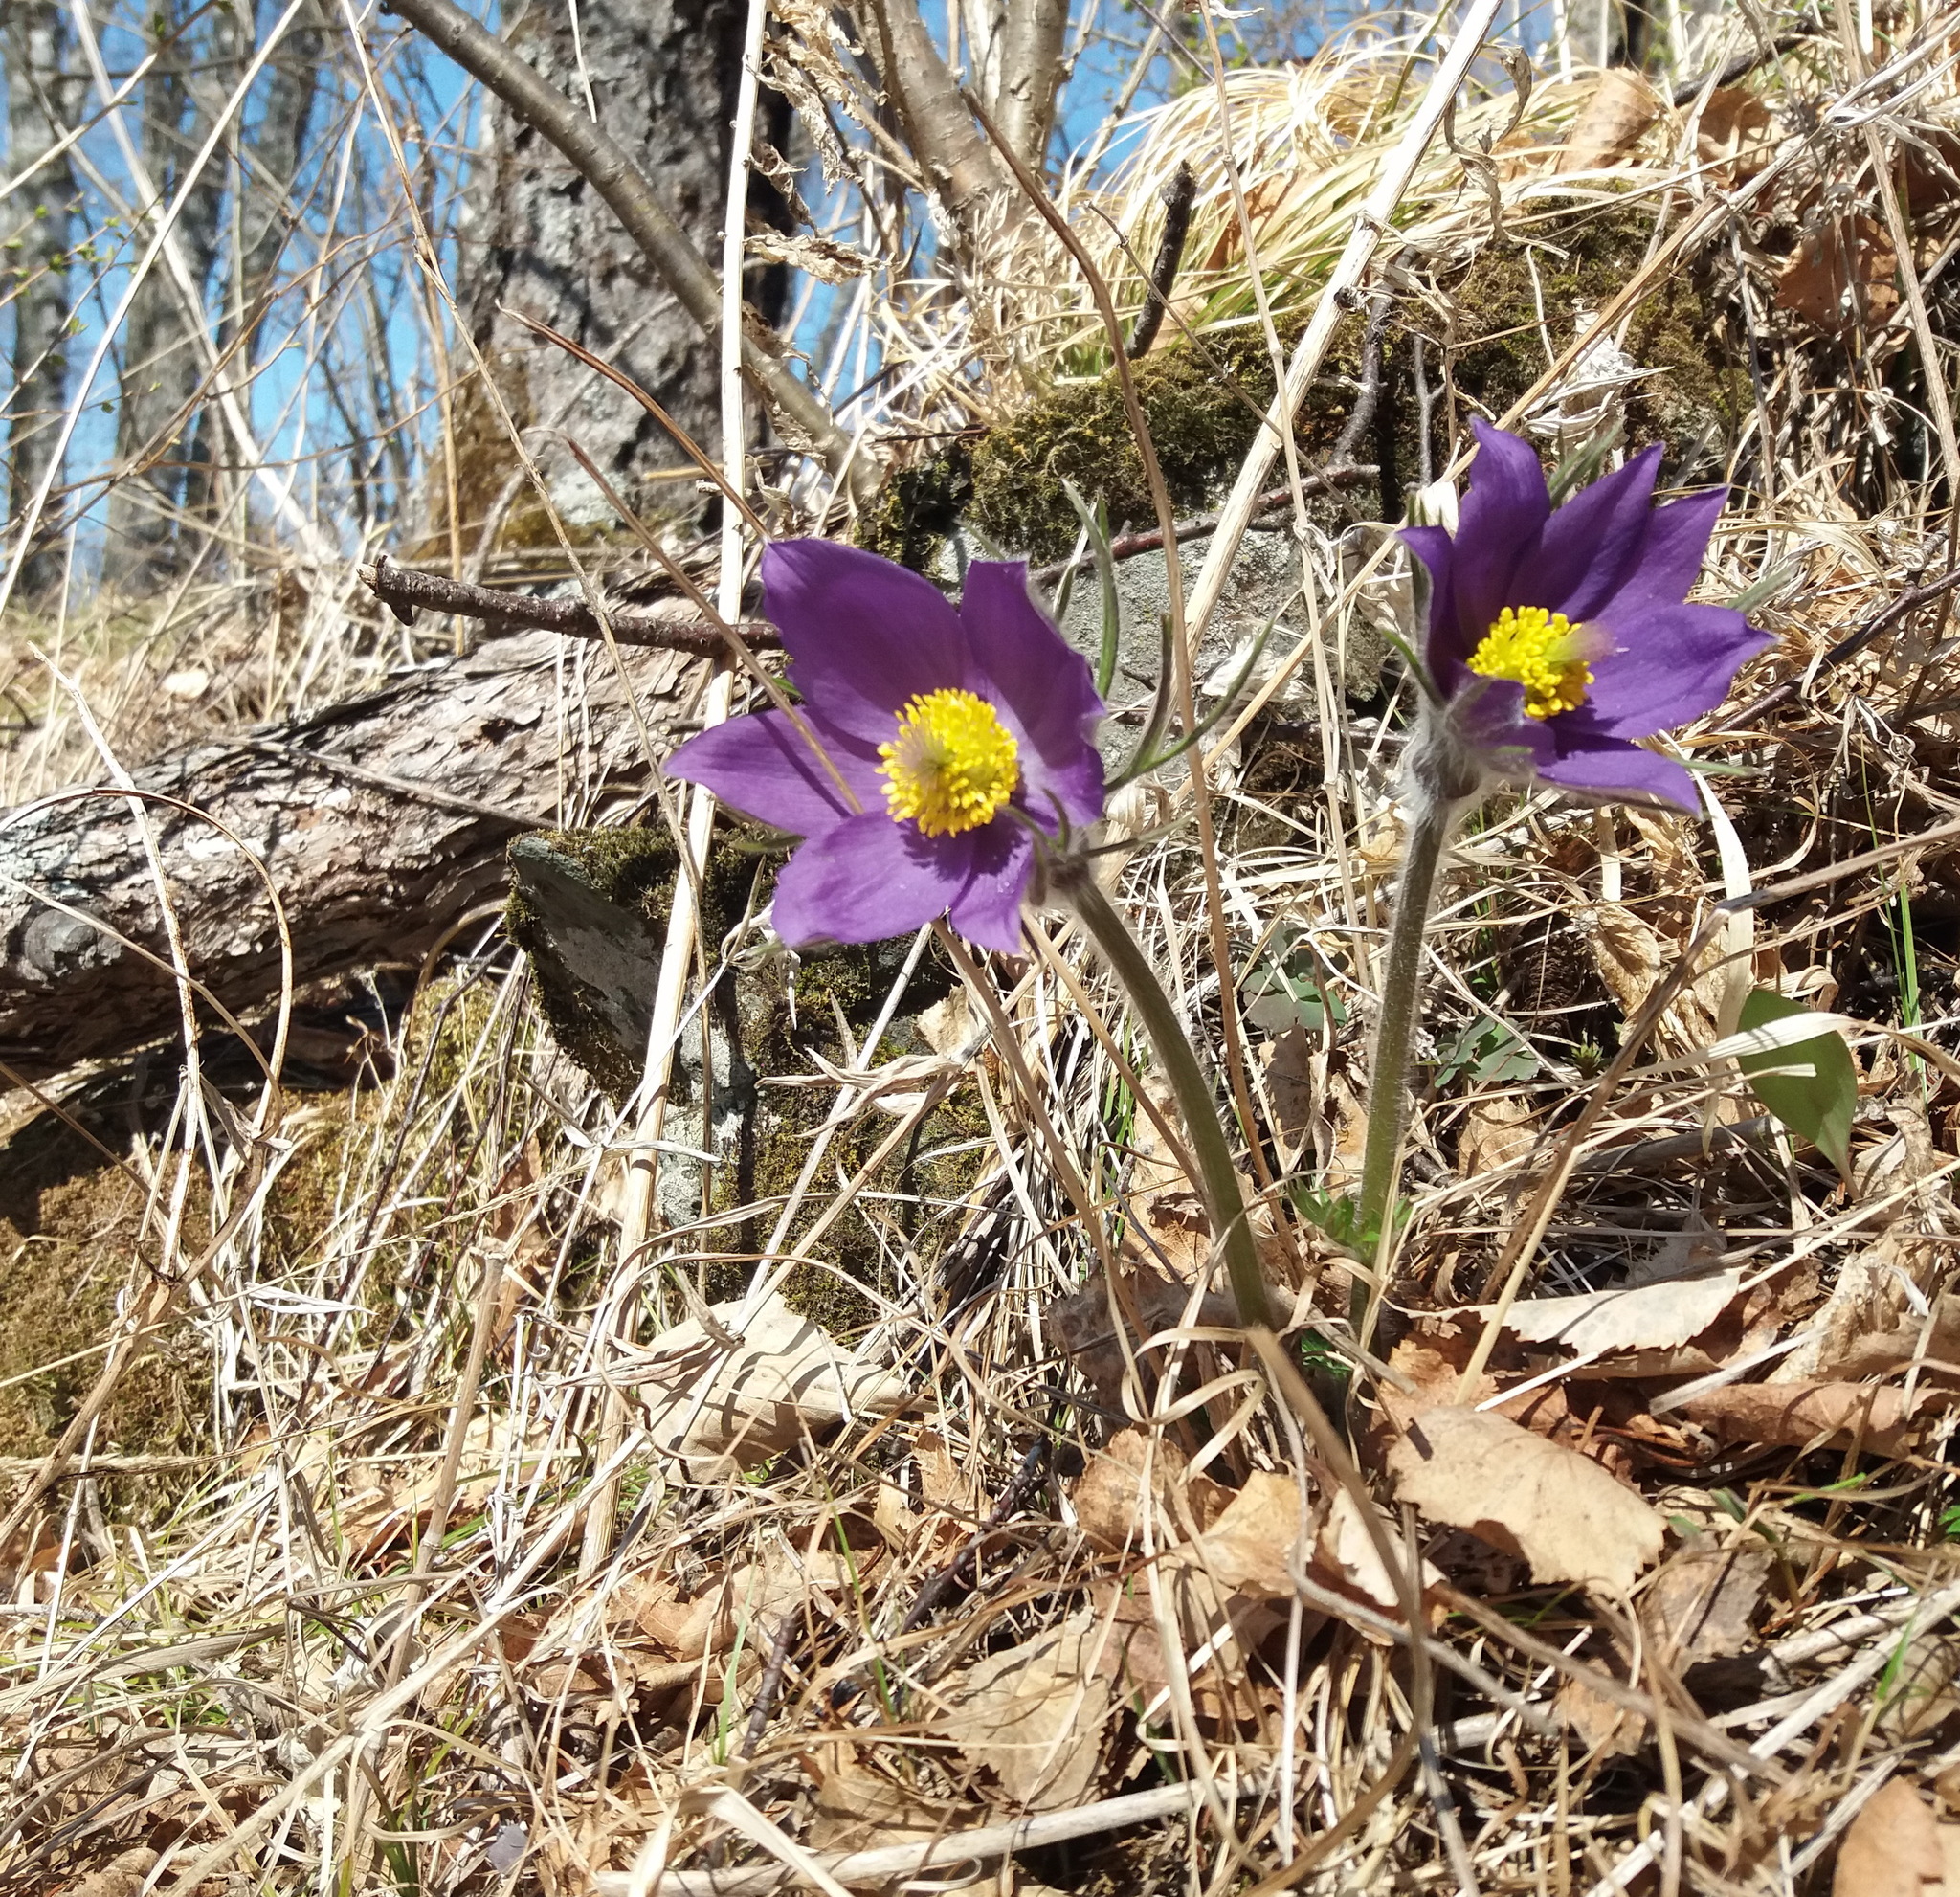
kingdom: Plantae
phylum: Tracheophyta
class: Magnoliopsida
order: Ranunculales
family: Ranunculaceae
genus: Pulsatilla
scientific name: Pulsatilla patens
